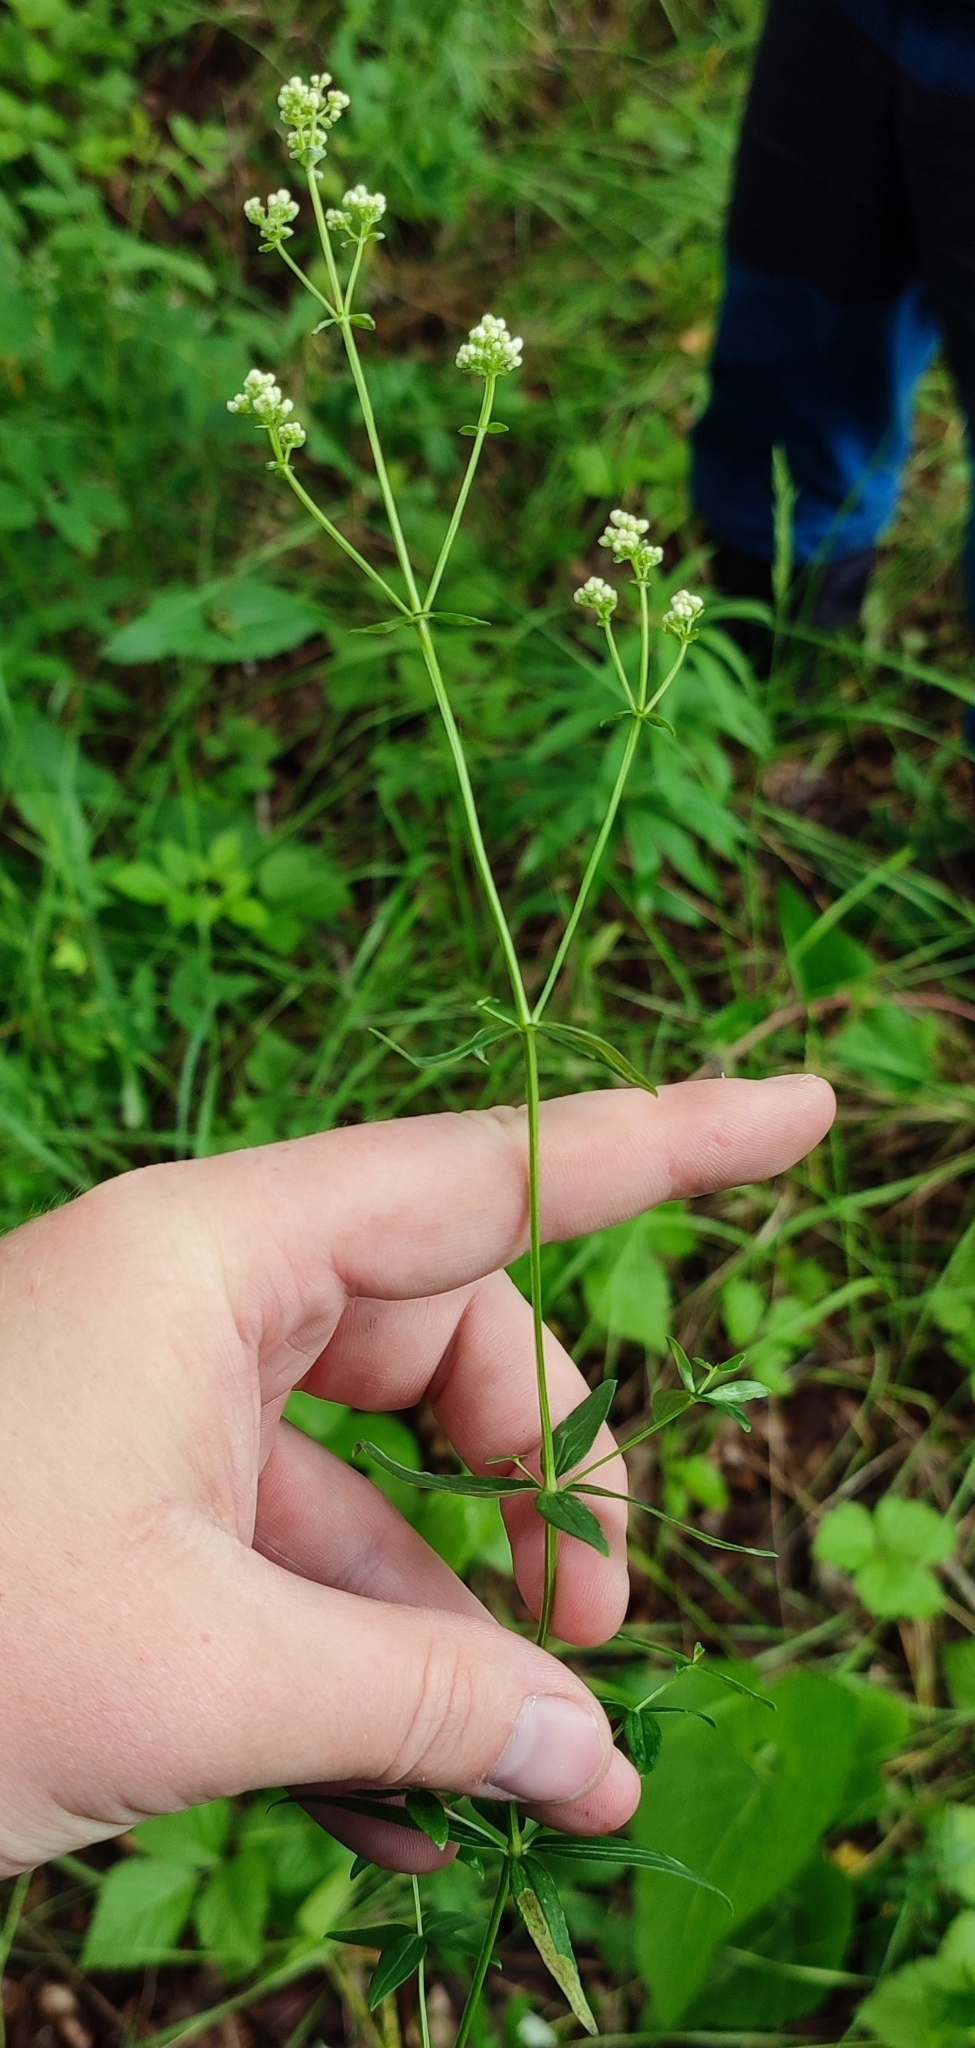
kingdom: Plantae
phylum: Tracheophyta
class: Magnoliopsida
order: Gentianales
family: Rubiaceae
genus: Galium
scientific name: Galium boreale
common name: Northern bedstraw
